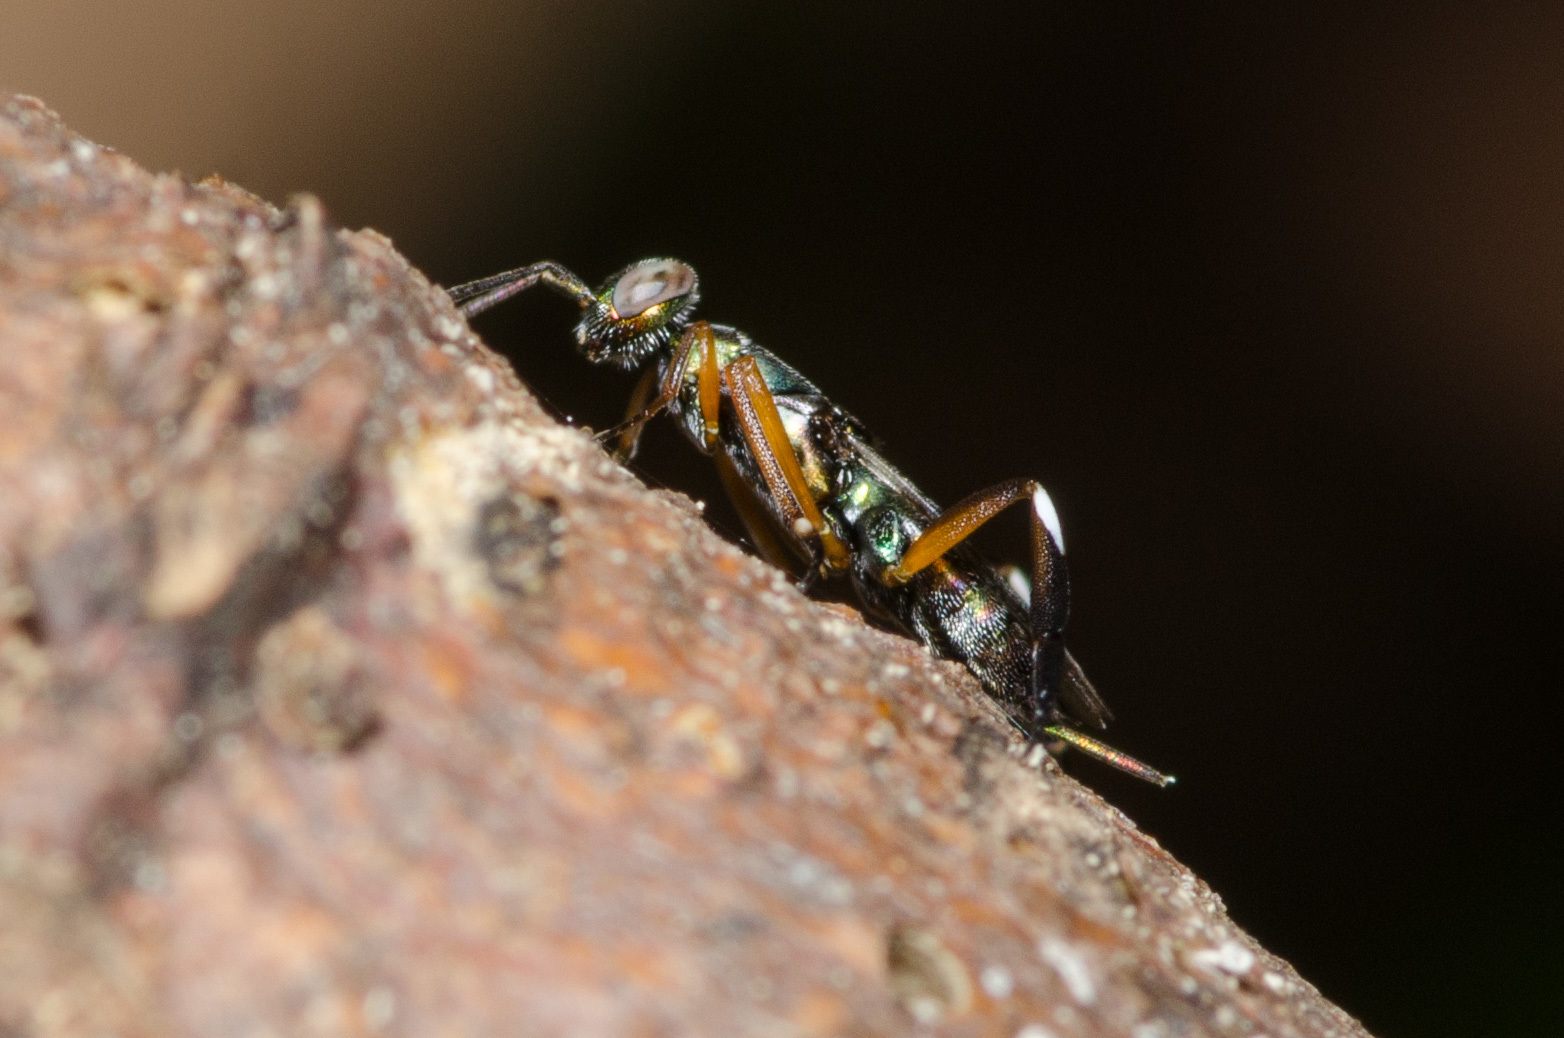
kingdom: Animalia
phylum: Arthropoda
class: Insecta
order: Hymenoptera
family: Eupelmidae
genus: Metapelma
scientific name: Metapelma spectabile
